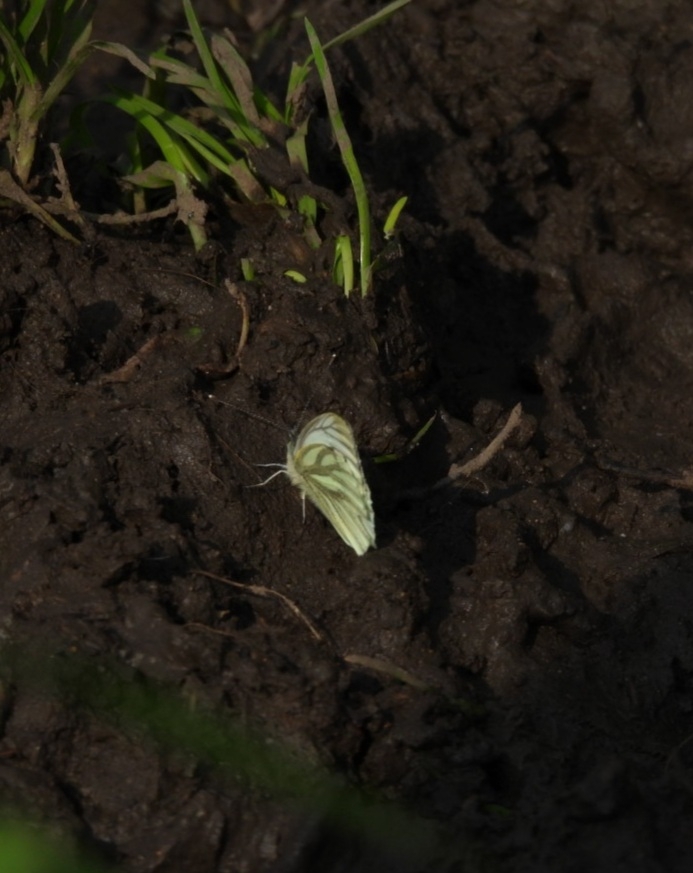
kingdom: Animalia
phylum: Arthropoda
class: Insecta
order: Lepidoptera
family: Pieridae
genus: Pieris
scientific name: Pieris napi
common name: Green-veined white
